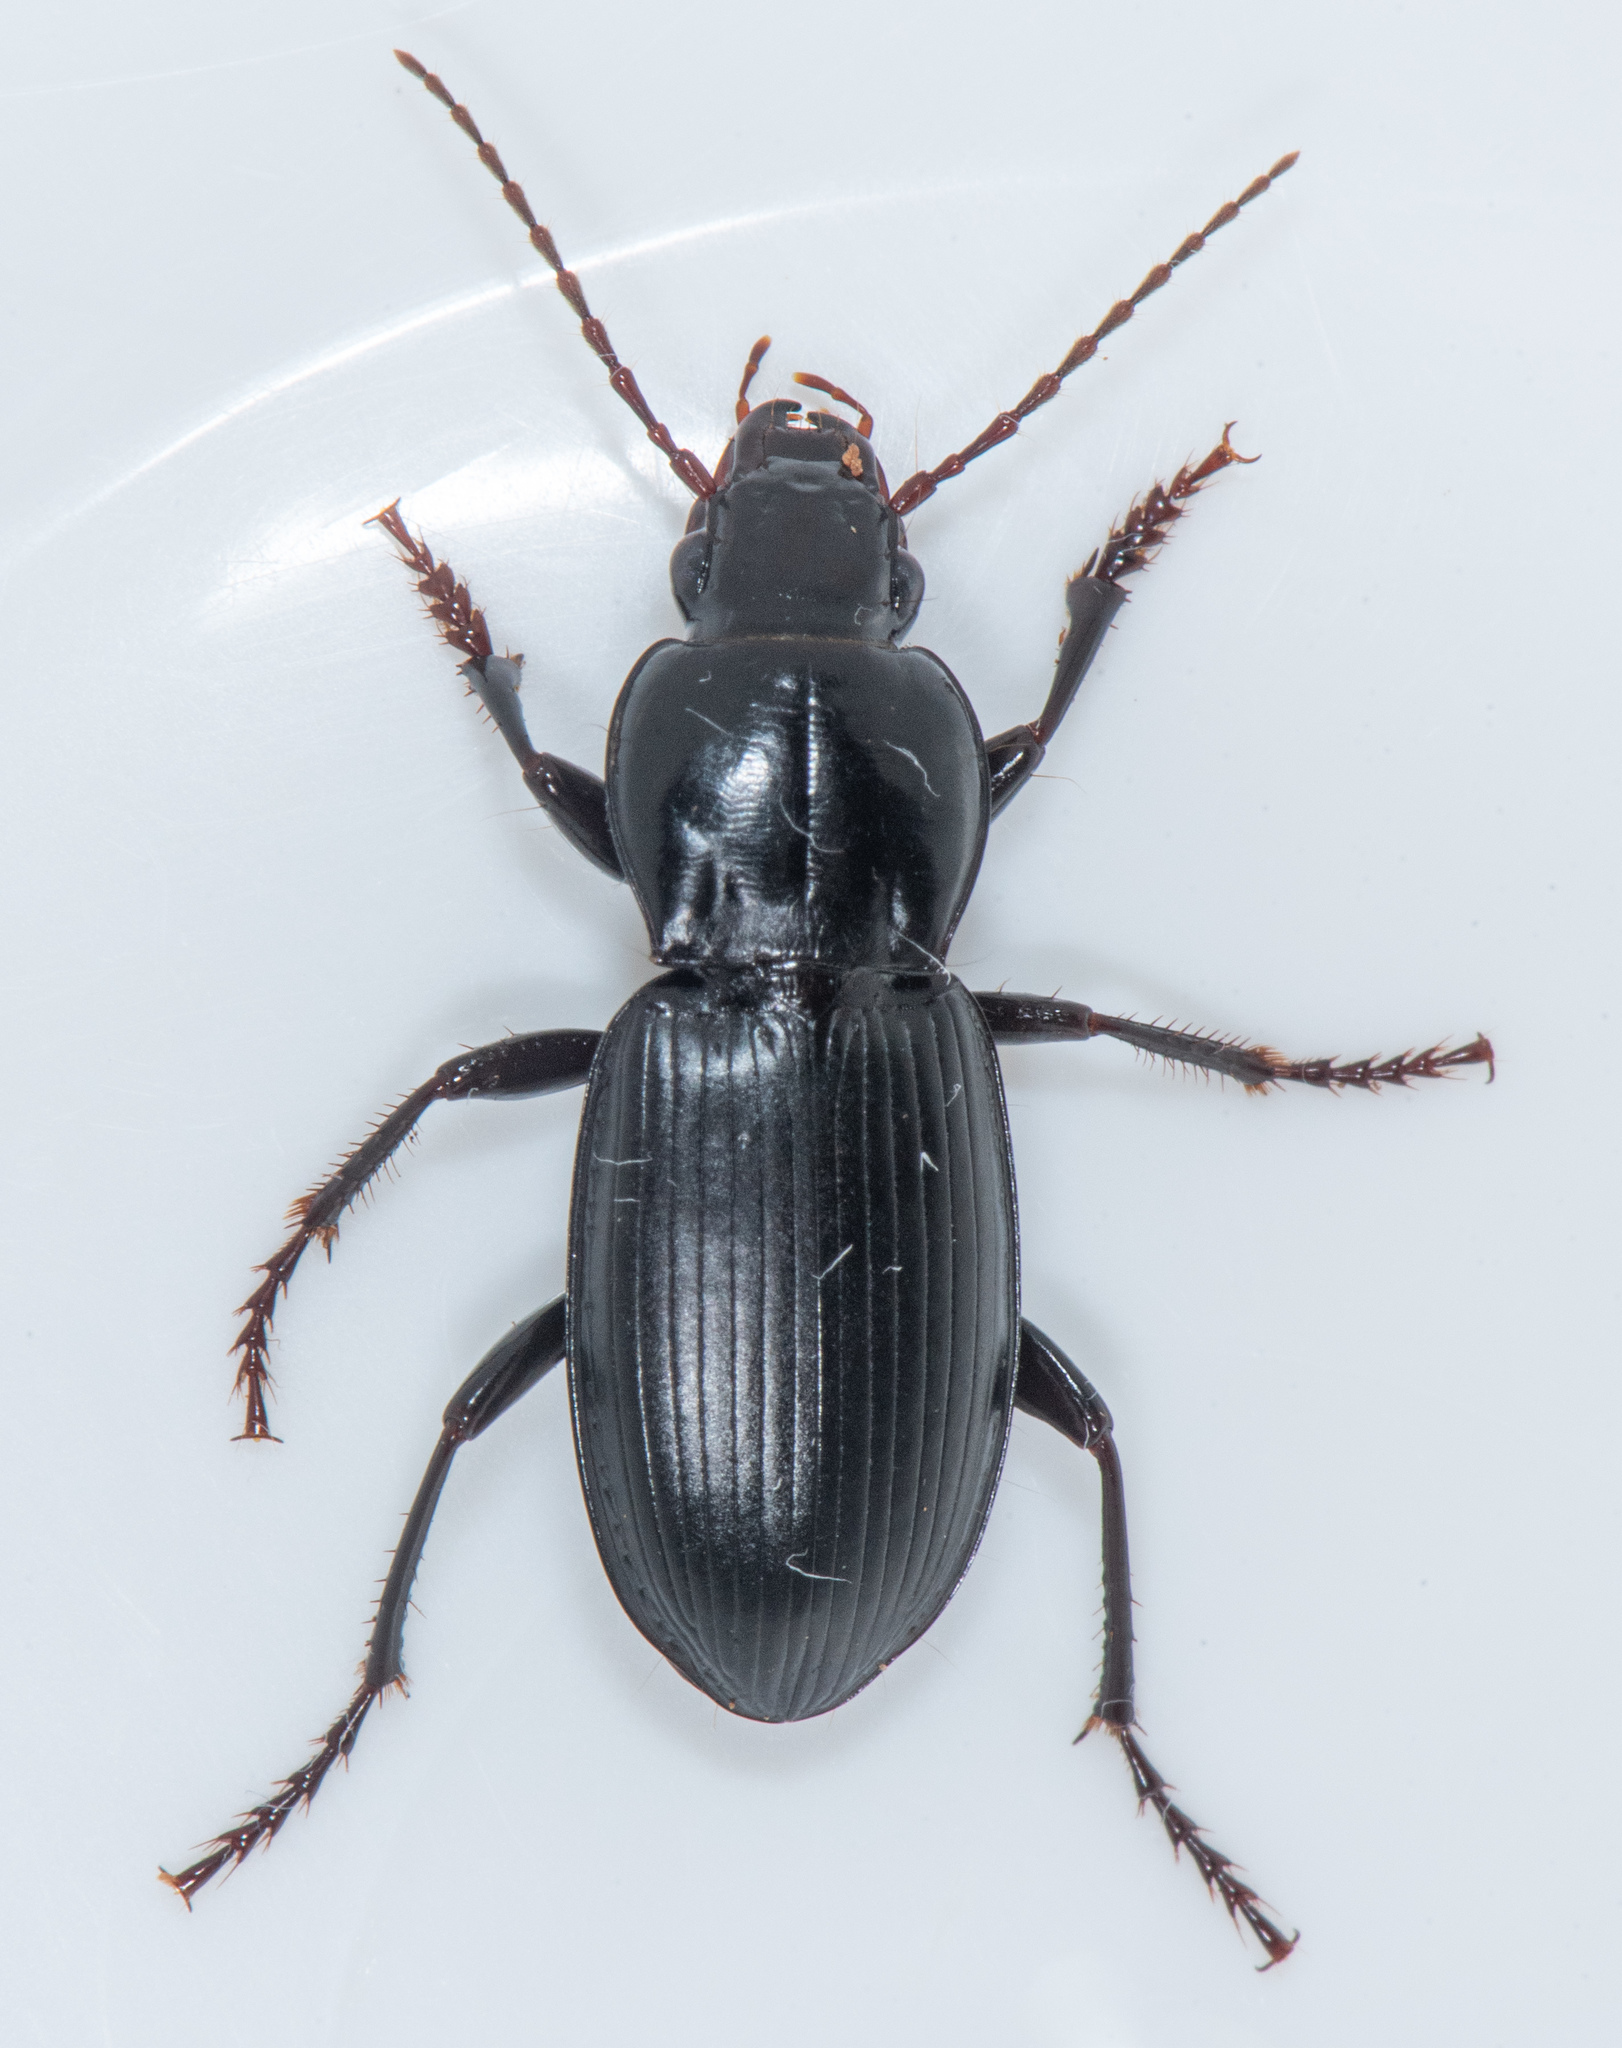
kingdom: Animalia
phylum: Arthropoda
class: Insecta
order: Coleoptera
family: Carabidae
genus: Pterostichus
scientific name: Pterostichus californicus
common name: Ground beetle
